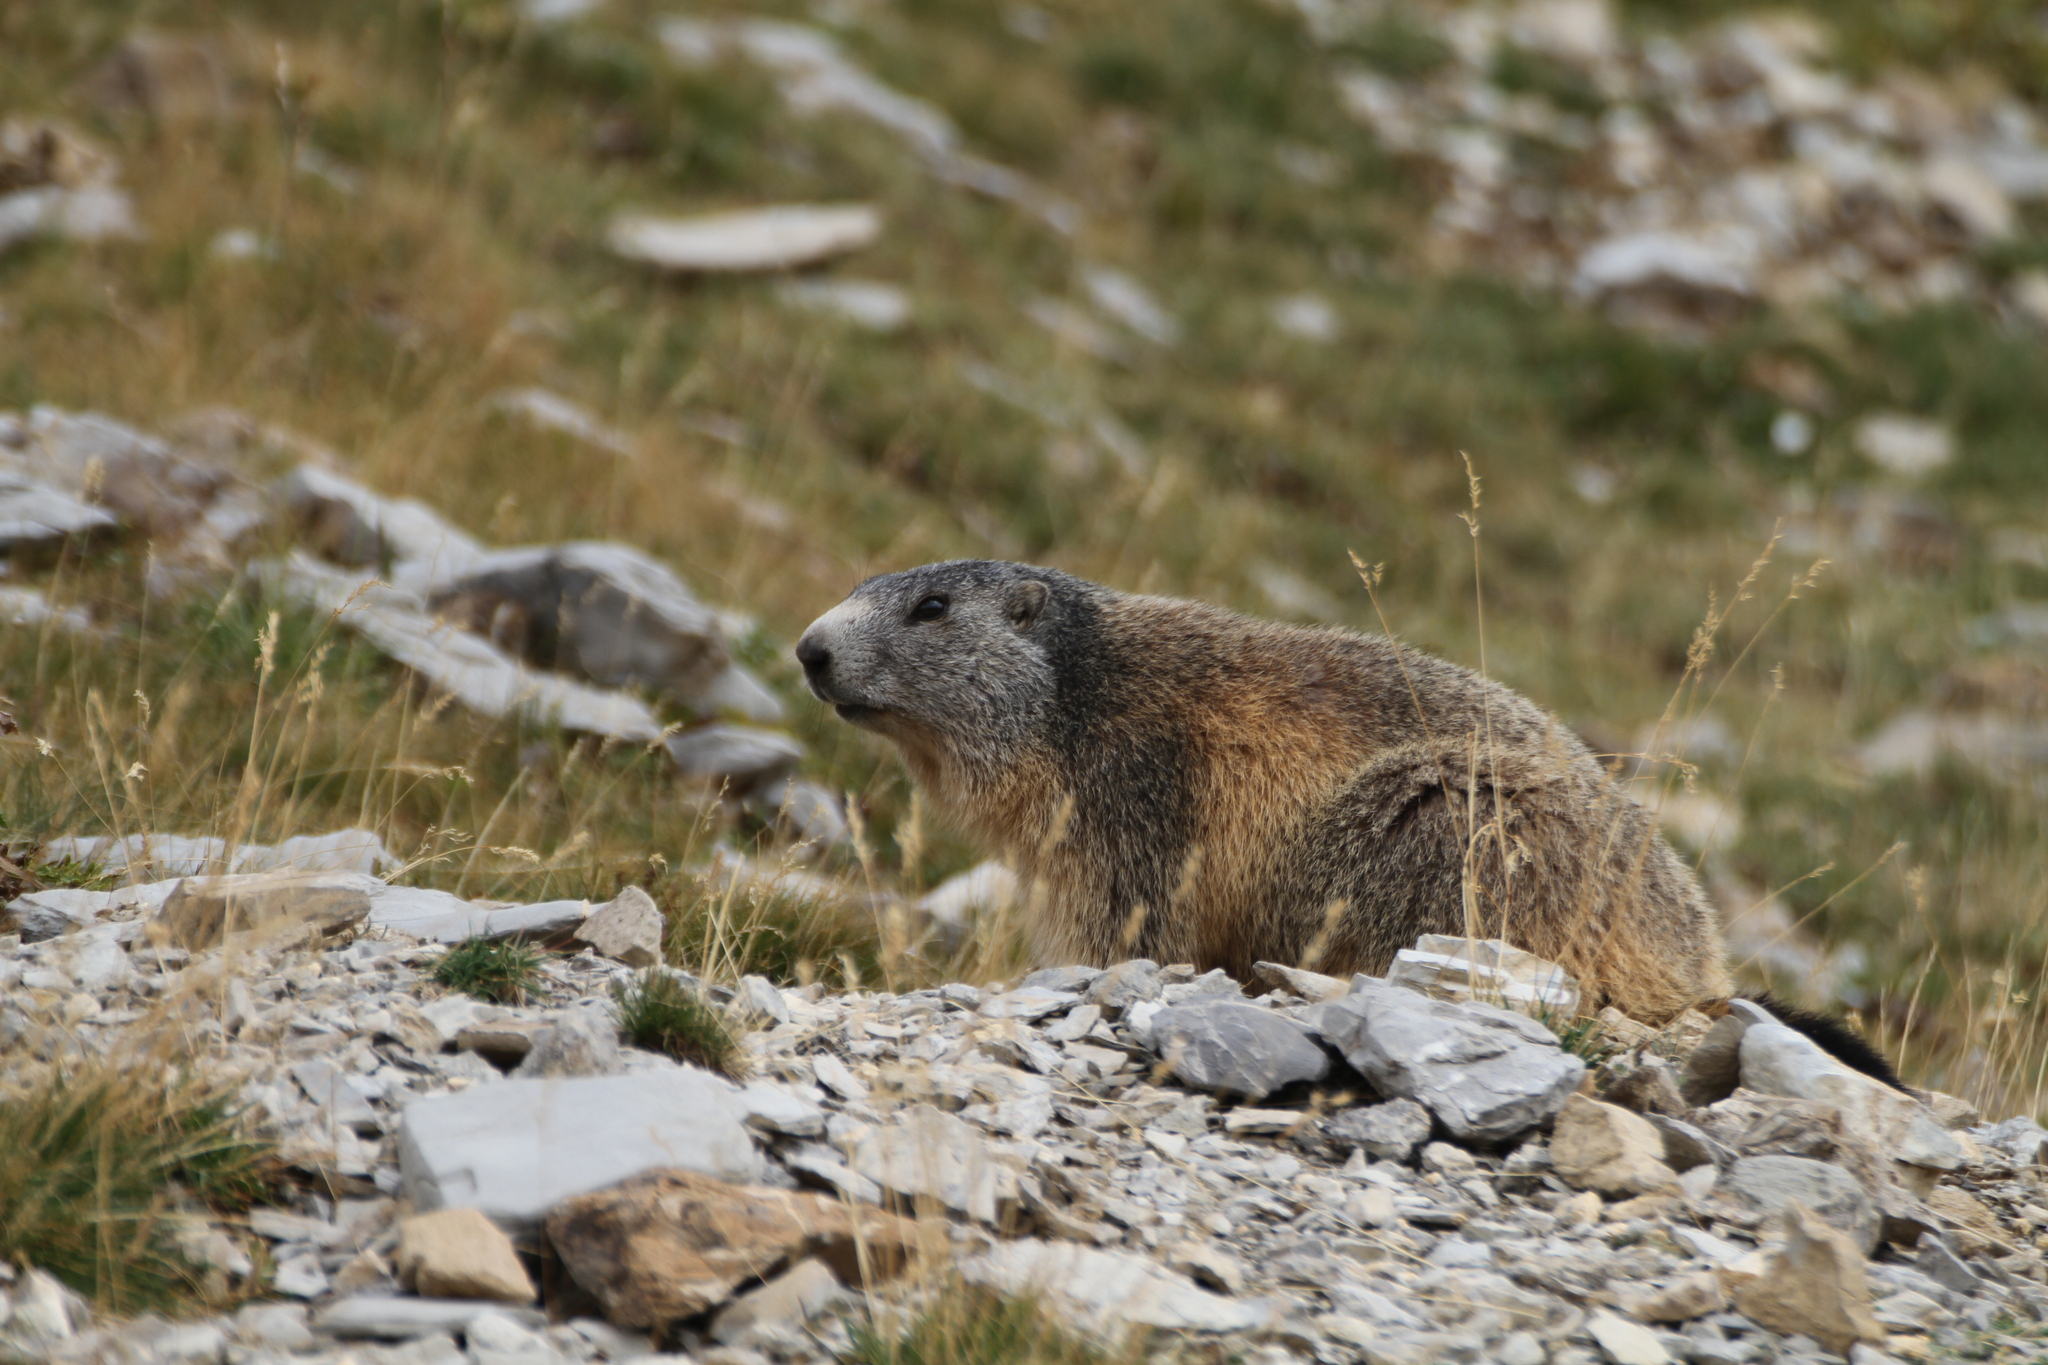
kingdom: Animalia
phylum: Chordata
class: Mammalia
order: Rodentia
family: Sciuridae
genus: Marmota
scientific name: Marmota marmota
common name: Alpine marmot
